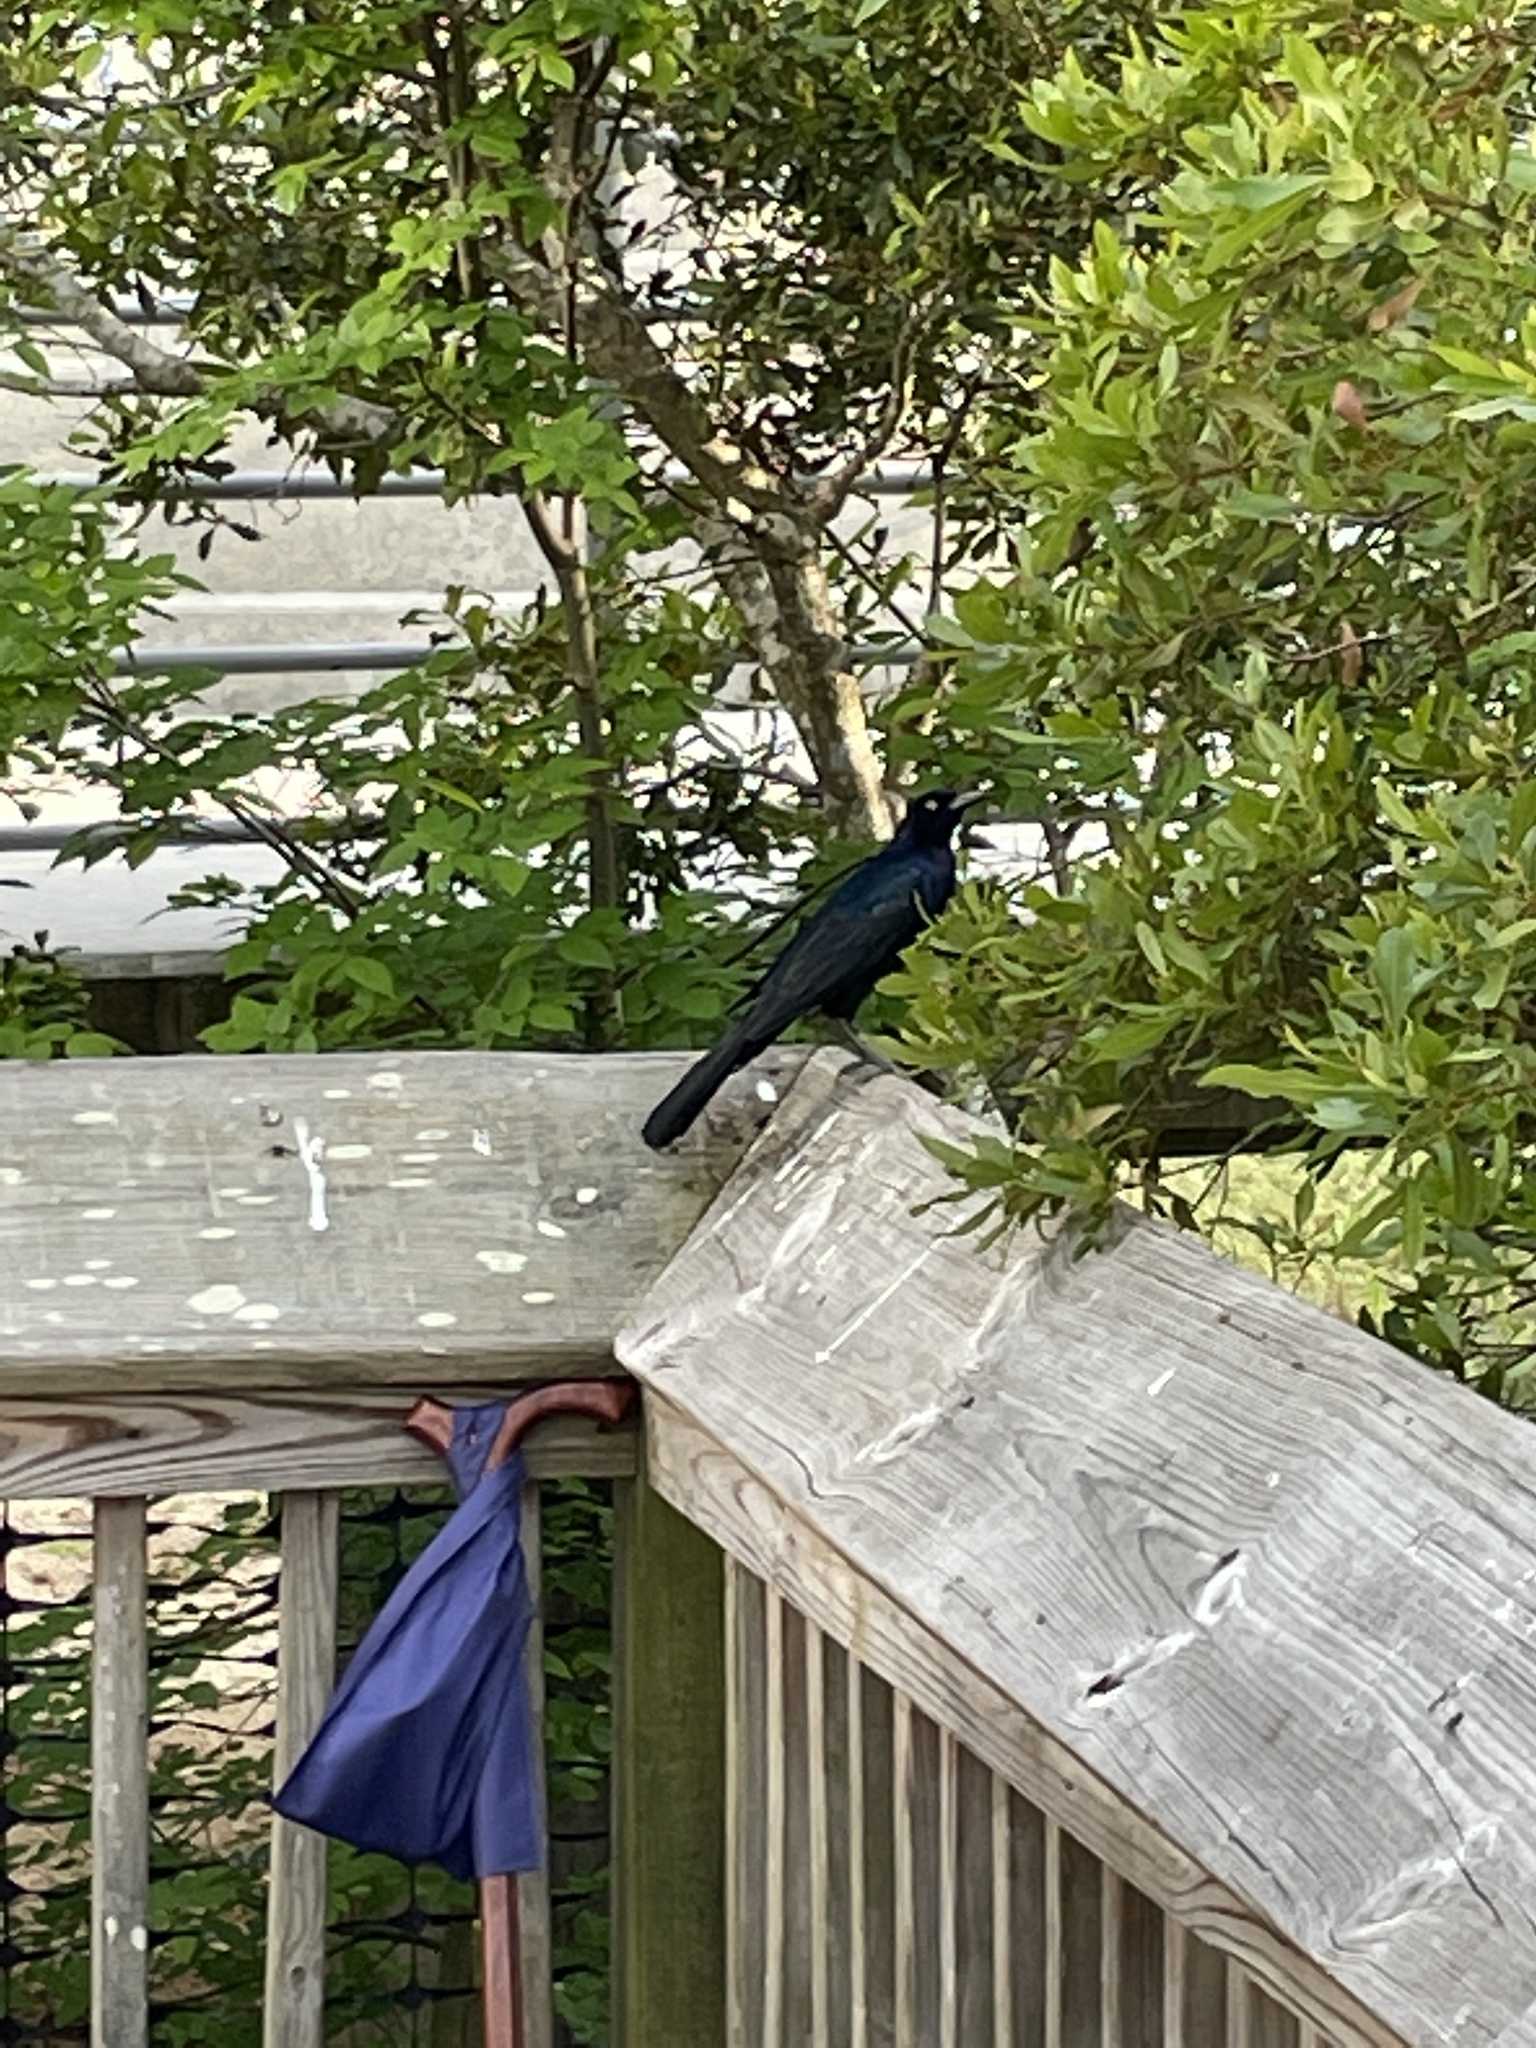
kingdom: Animalia
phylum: Chordata
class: Aves
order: Passeriformes
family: Icteridae
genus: Quiscalus
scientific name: Quiscalus major
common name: Boat-tailed grackle
